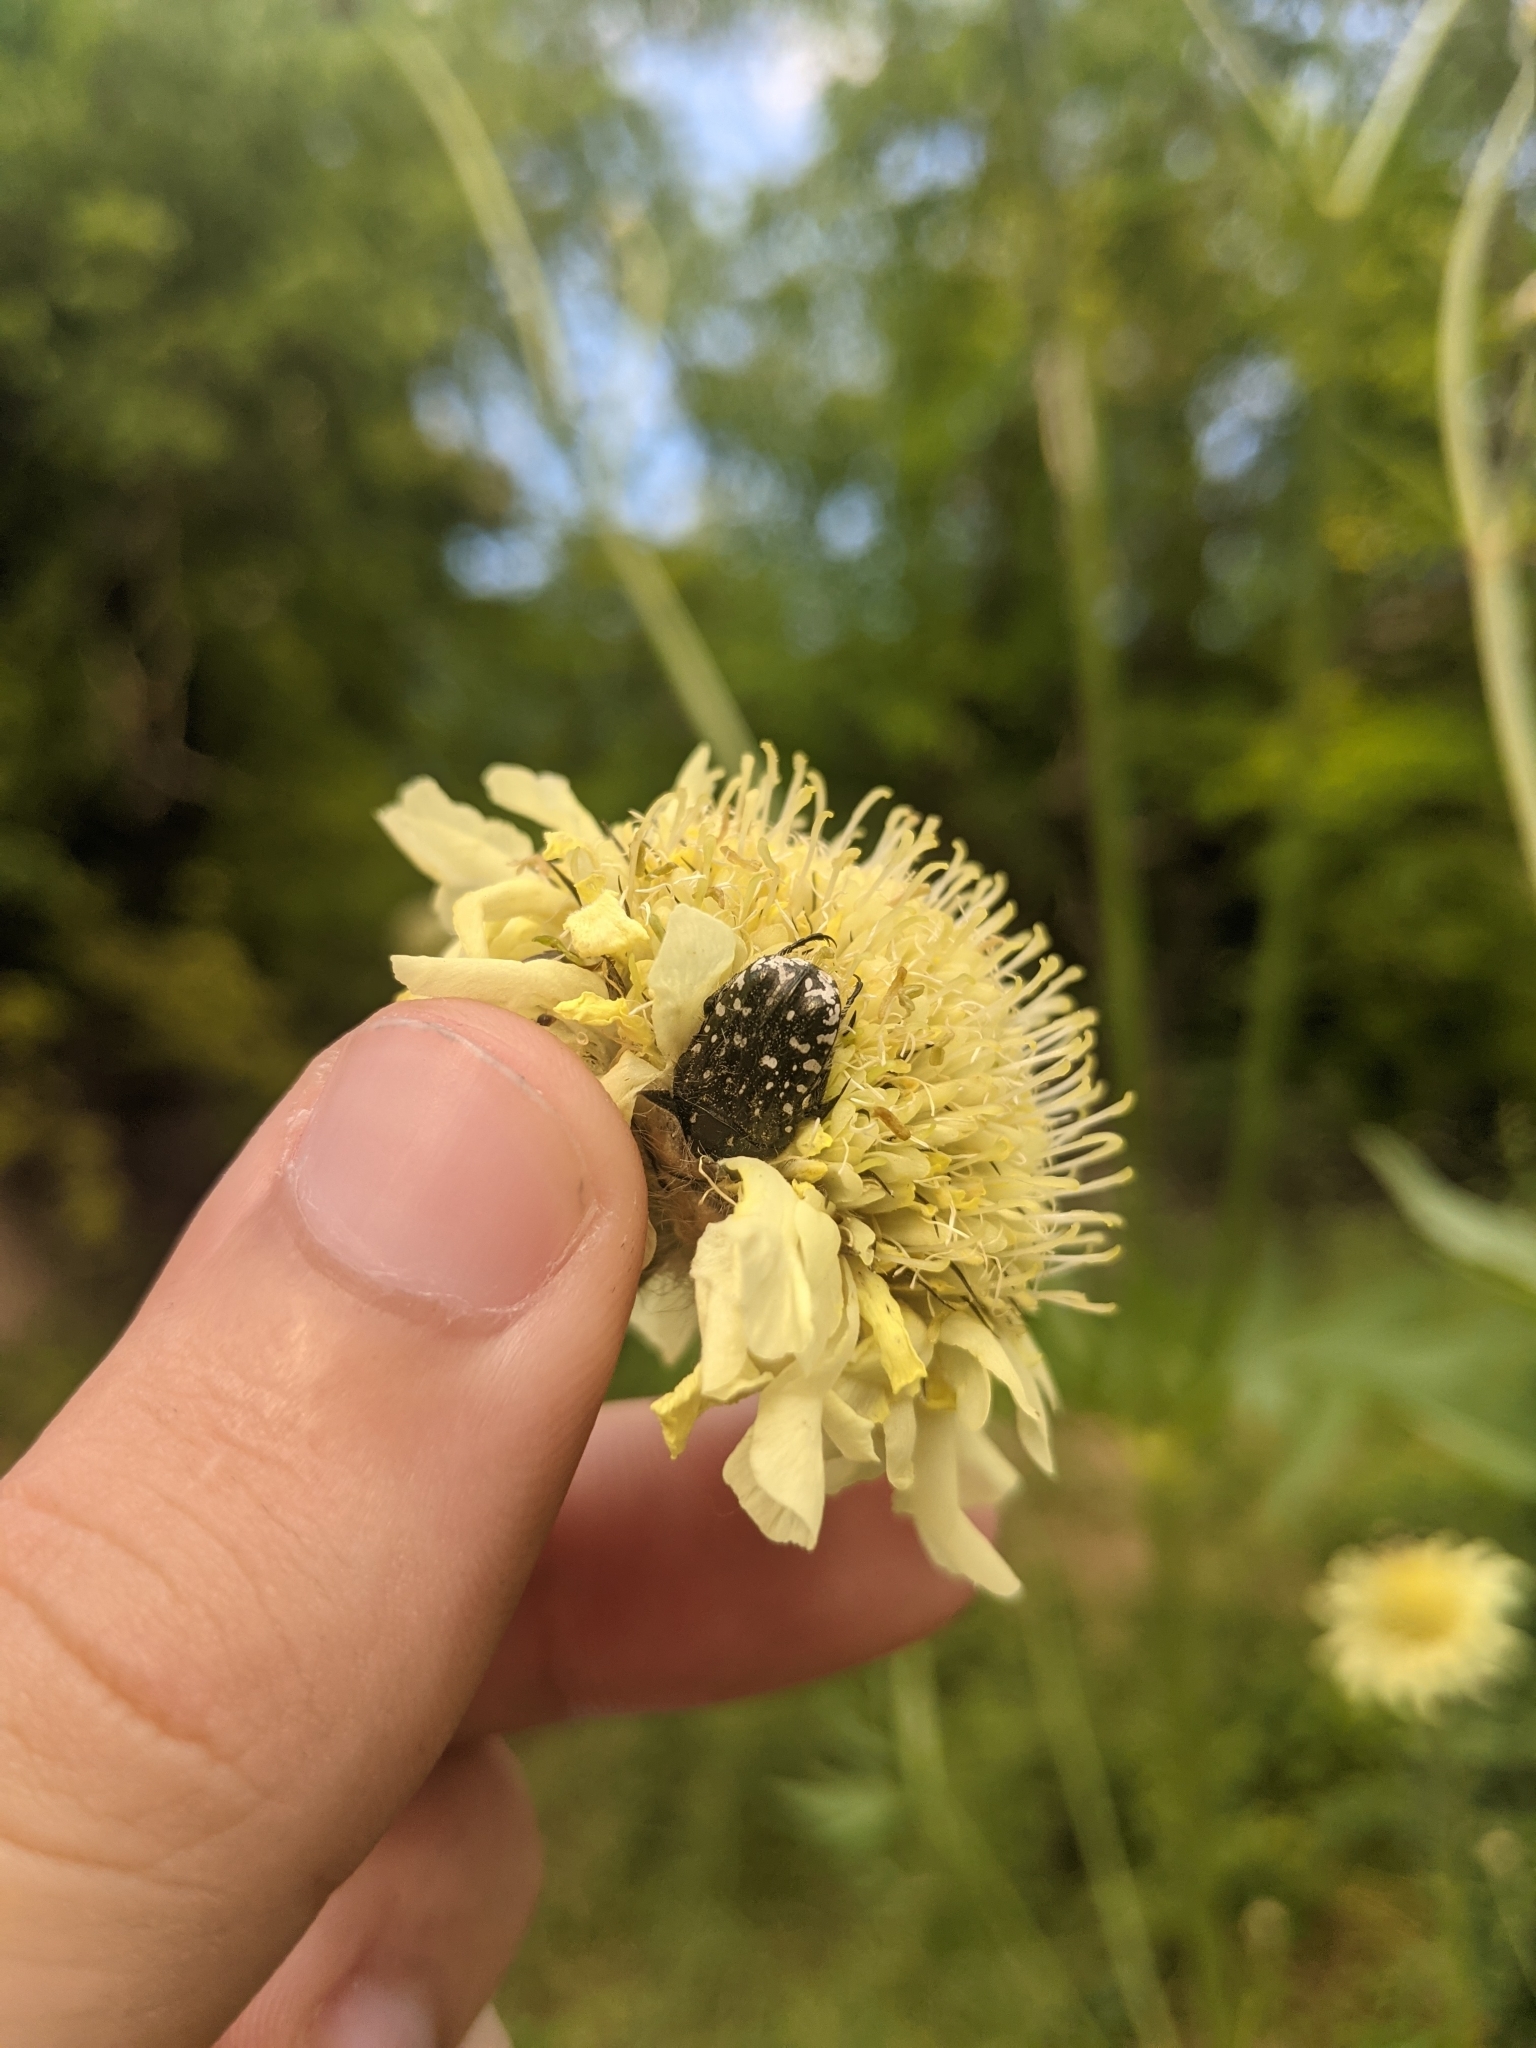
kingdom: Animalia
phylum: Arthropoda
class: Insecta
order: Coleoptera
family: Scarabaeidae
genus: Oxythyrea
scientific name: Oxythyrea funesta
